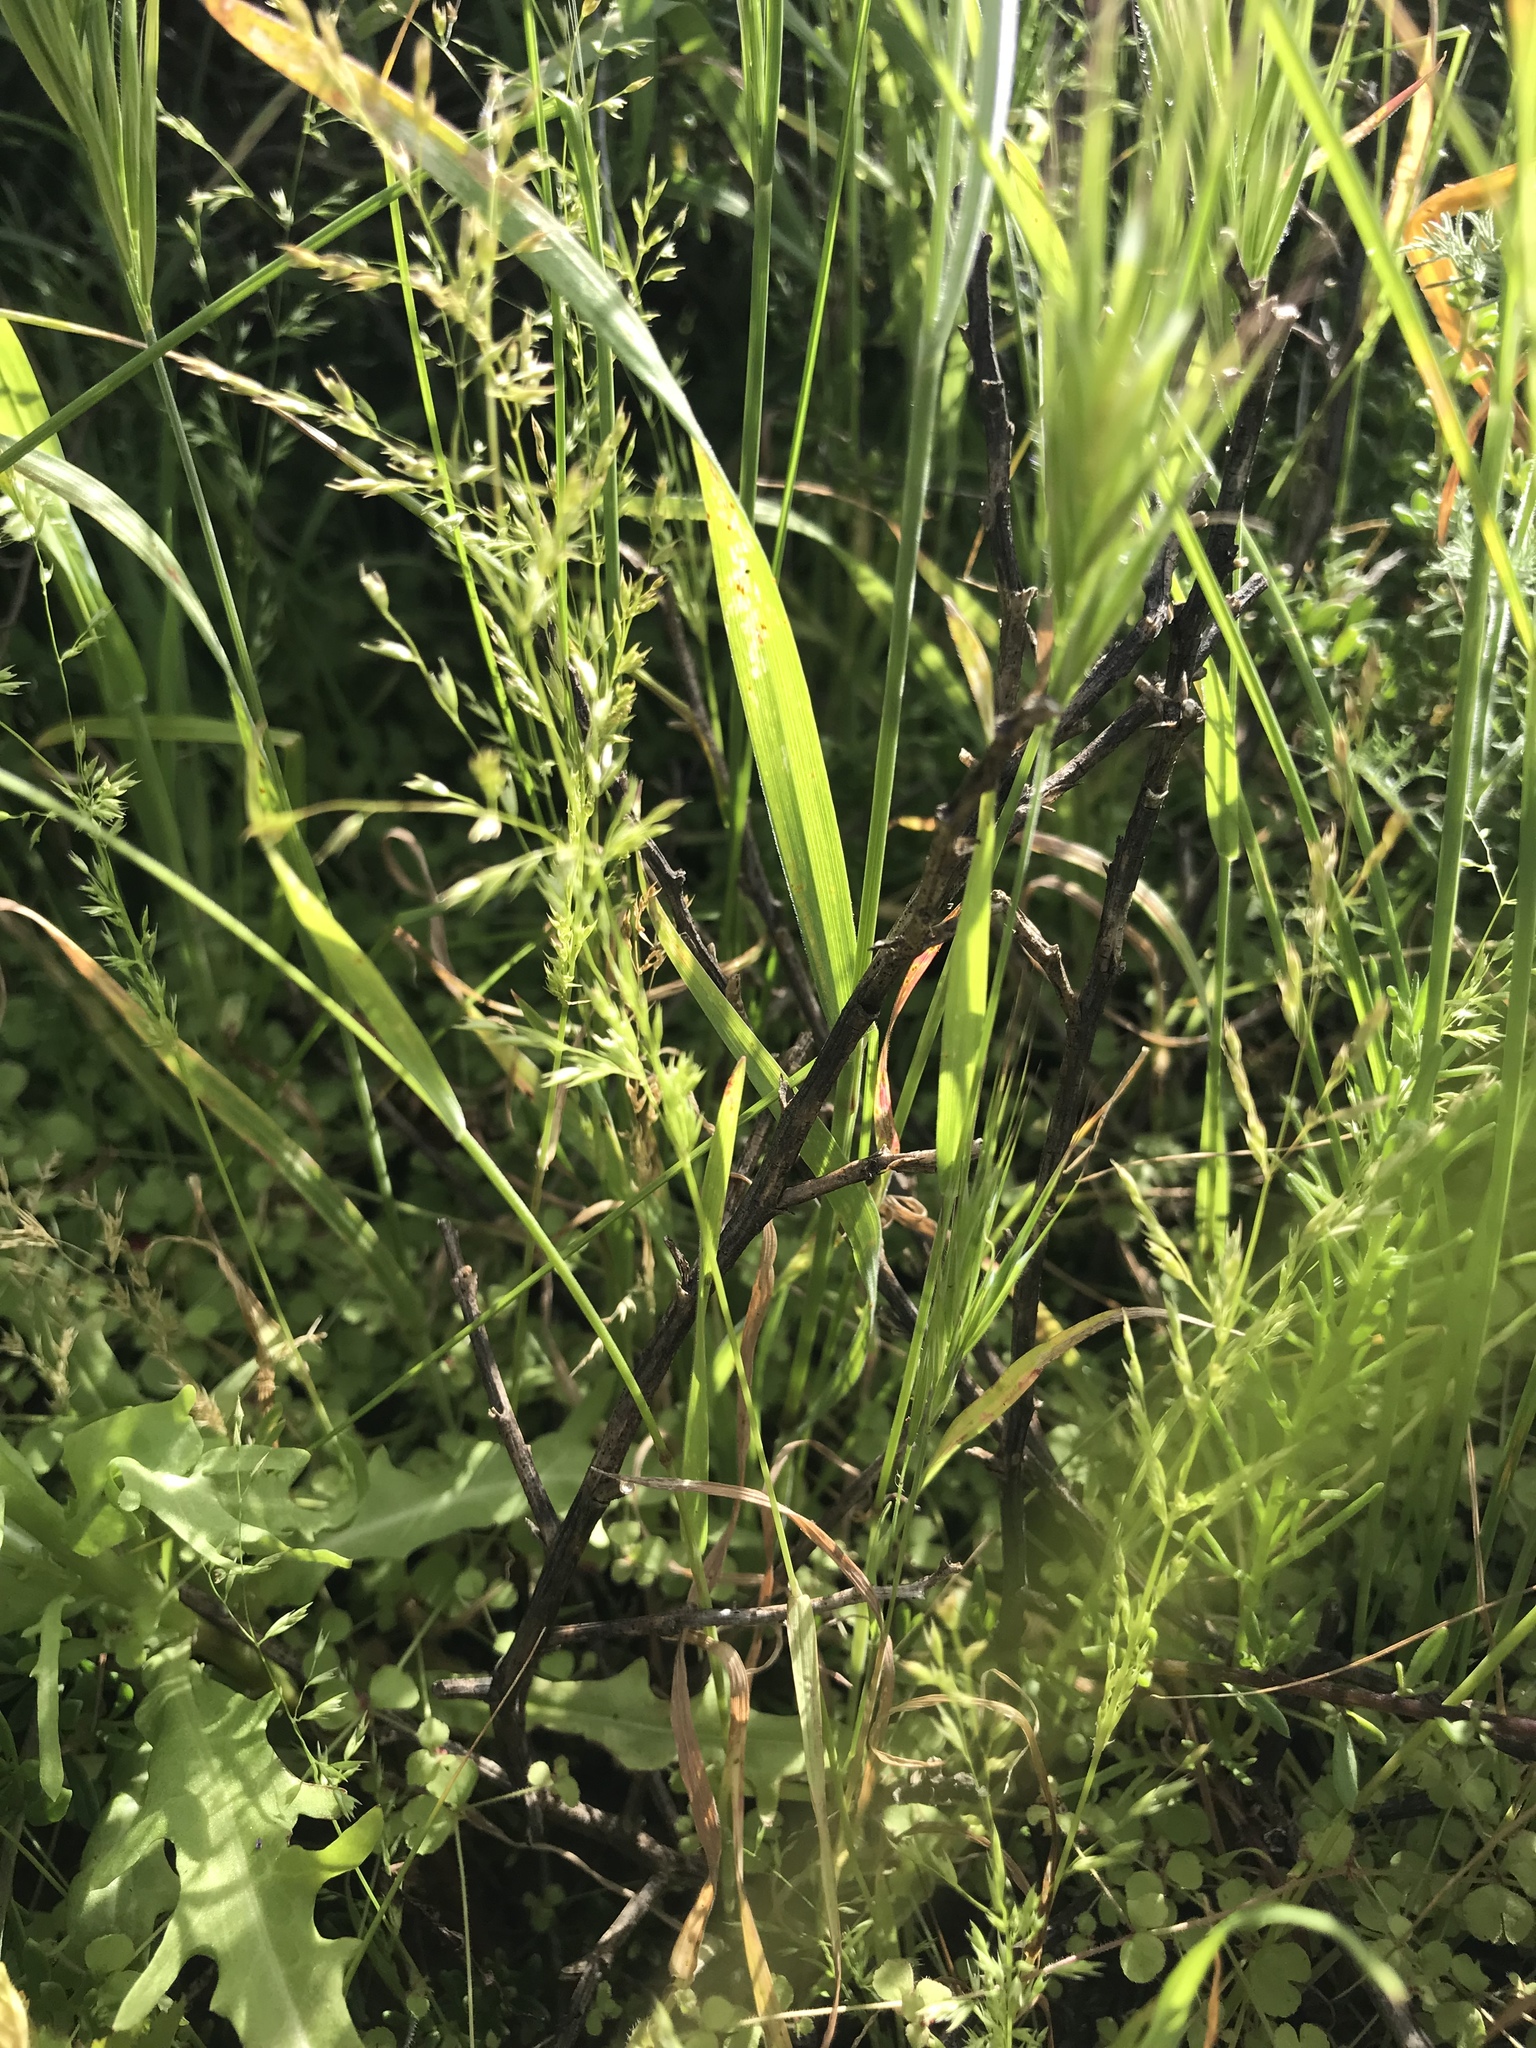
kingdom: Plantae
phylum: Tracheophyta
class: Liliopsida
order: Poales
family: Poaceae
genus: Poa
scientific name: Poa thomasii
